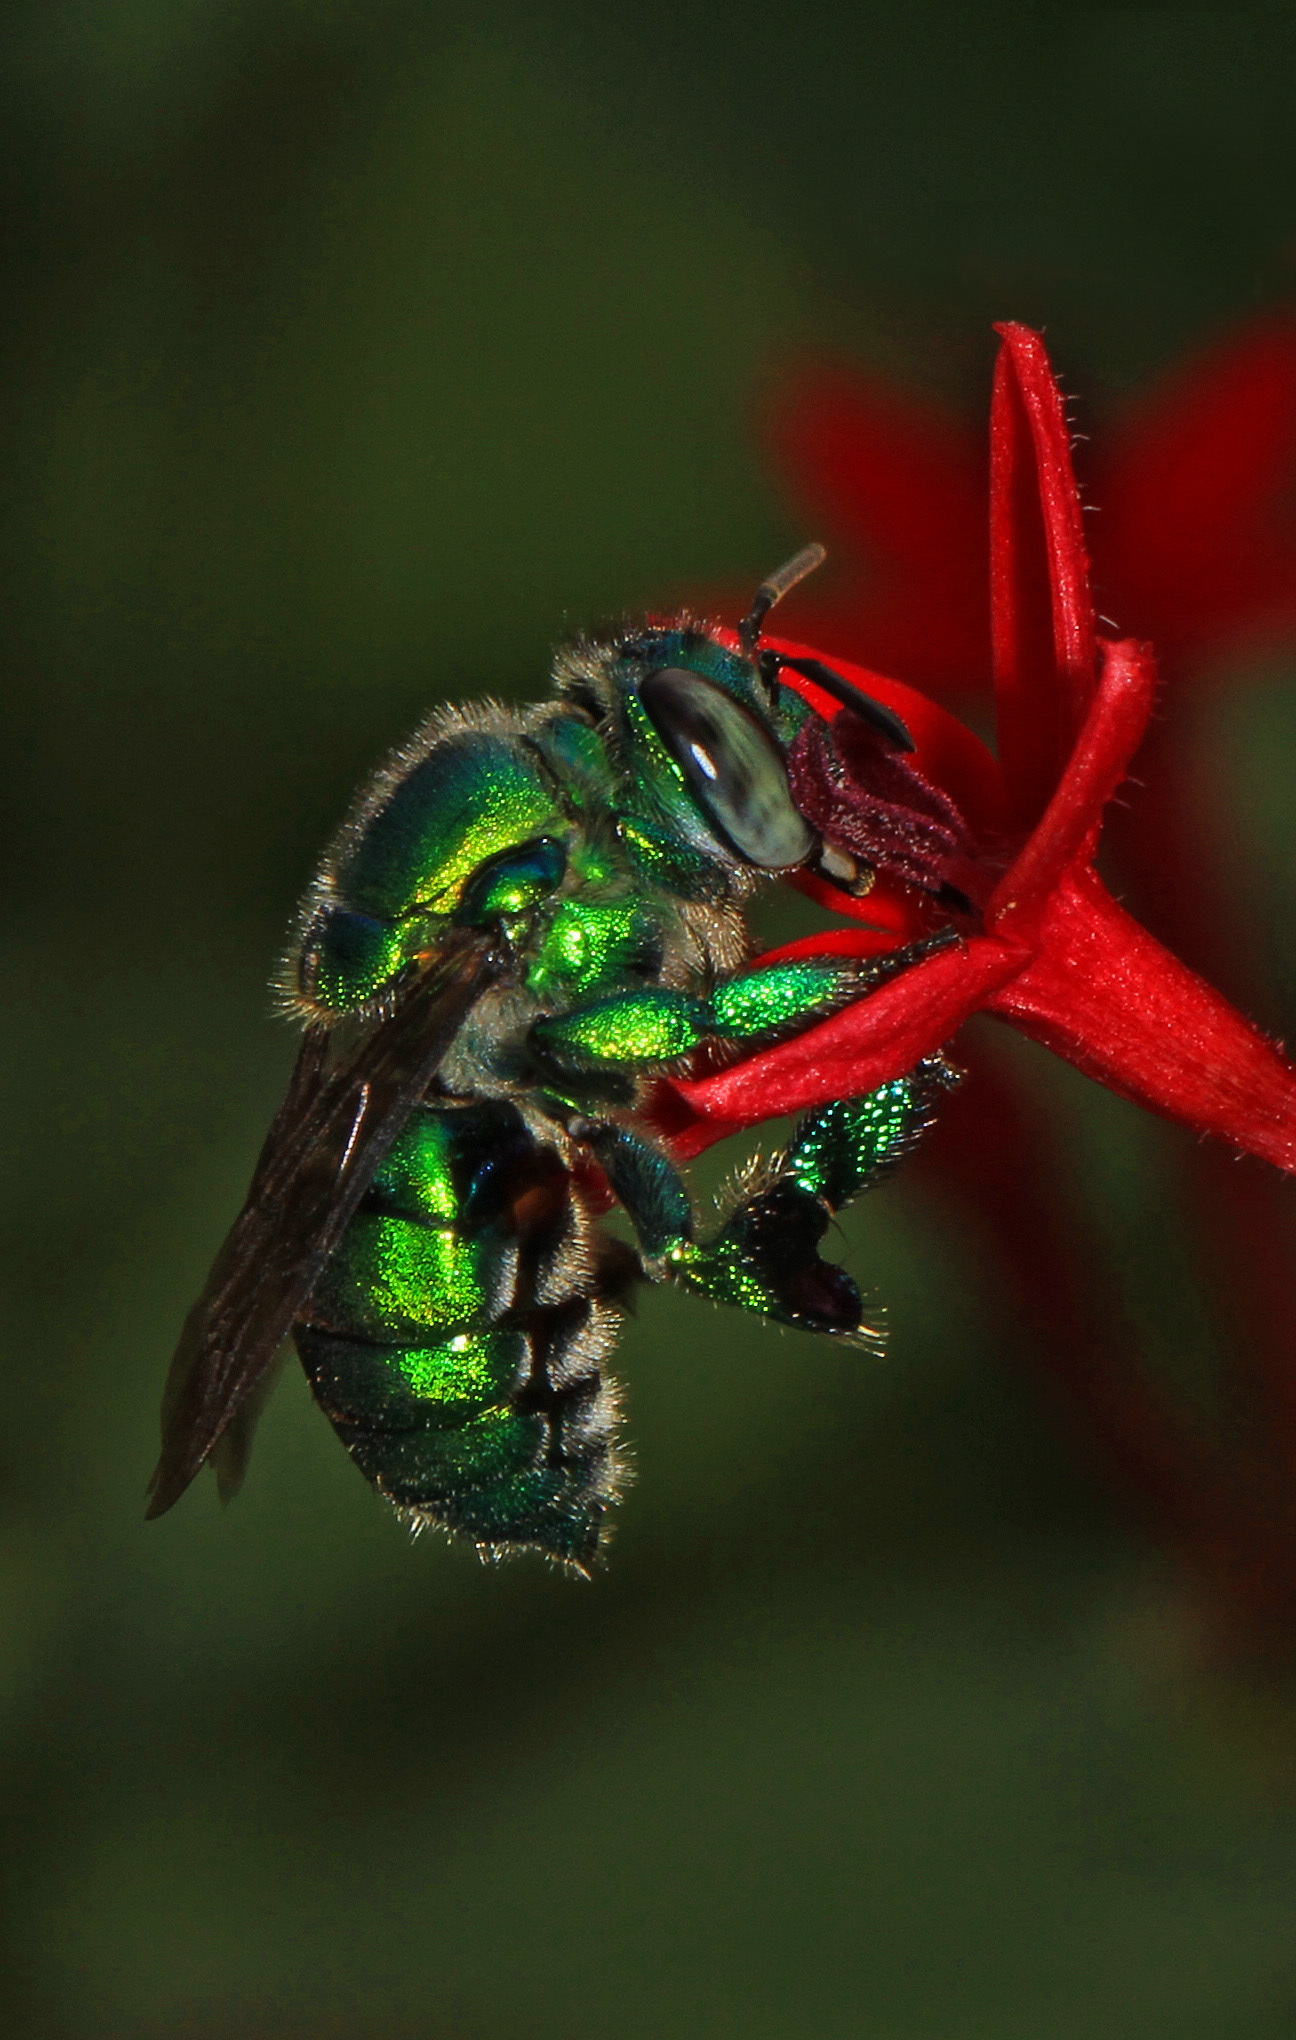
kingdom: Animalia
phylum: Arthropoda
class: Insecta
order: Hymenoptera
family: Apidae
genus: Euglossa
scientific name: Euglossa dilemma
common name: Green orchid bee
